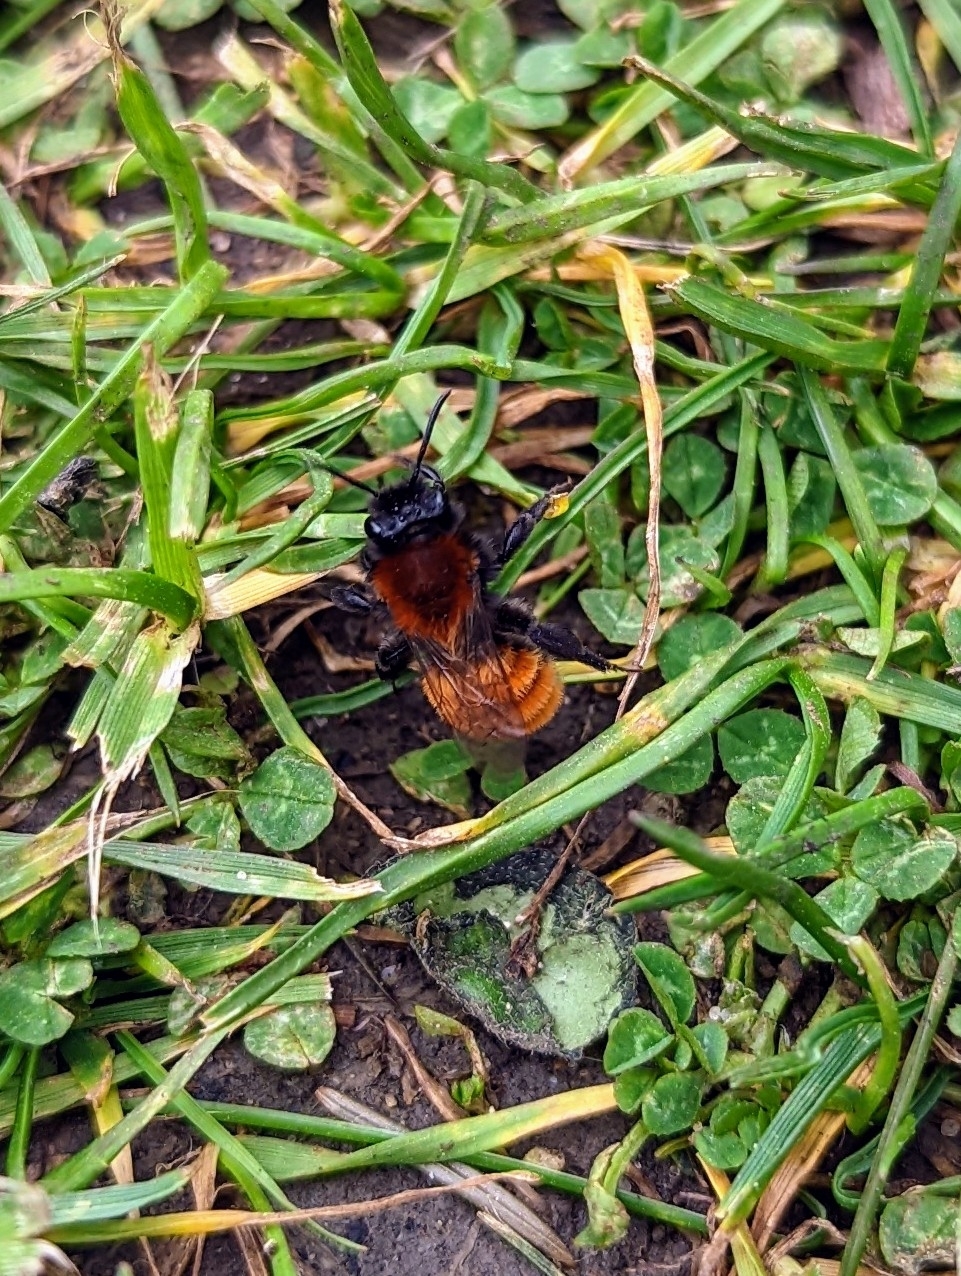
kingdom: Animalia
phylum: Arthropoda
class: Insecta
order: Hymenoptera
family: Andrenidae
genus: Andrena
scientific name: Andrena fulva
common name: Tawny mining bee
